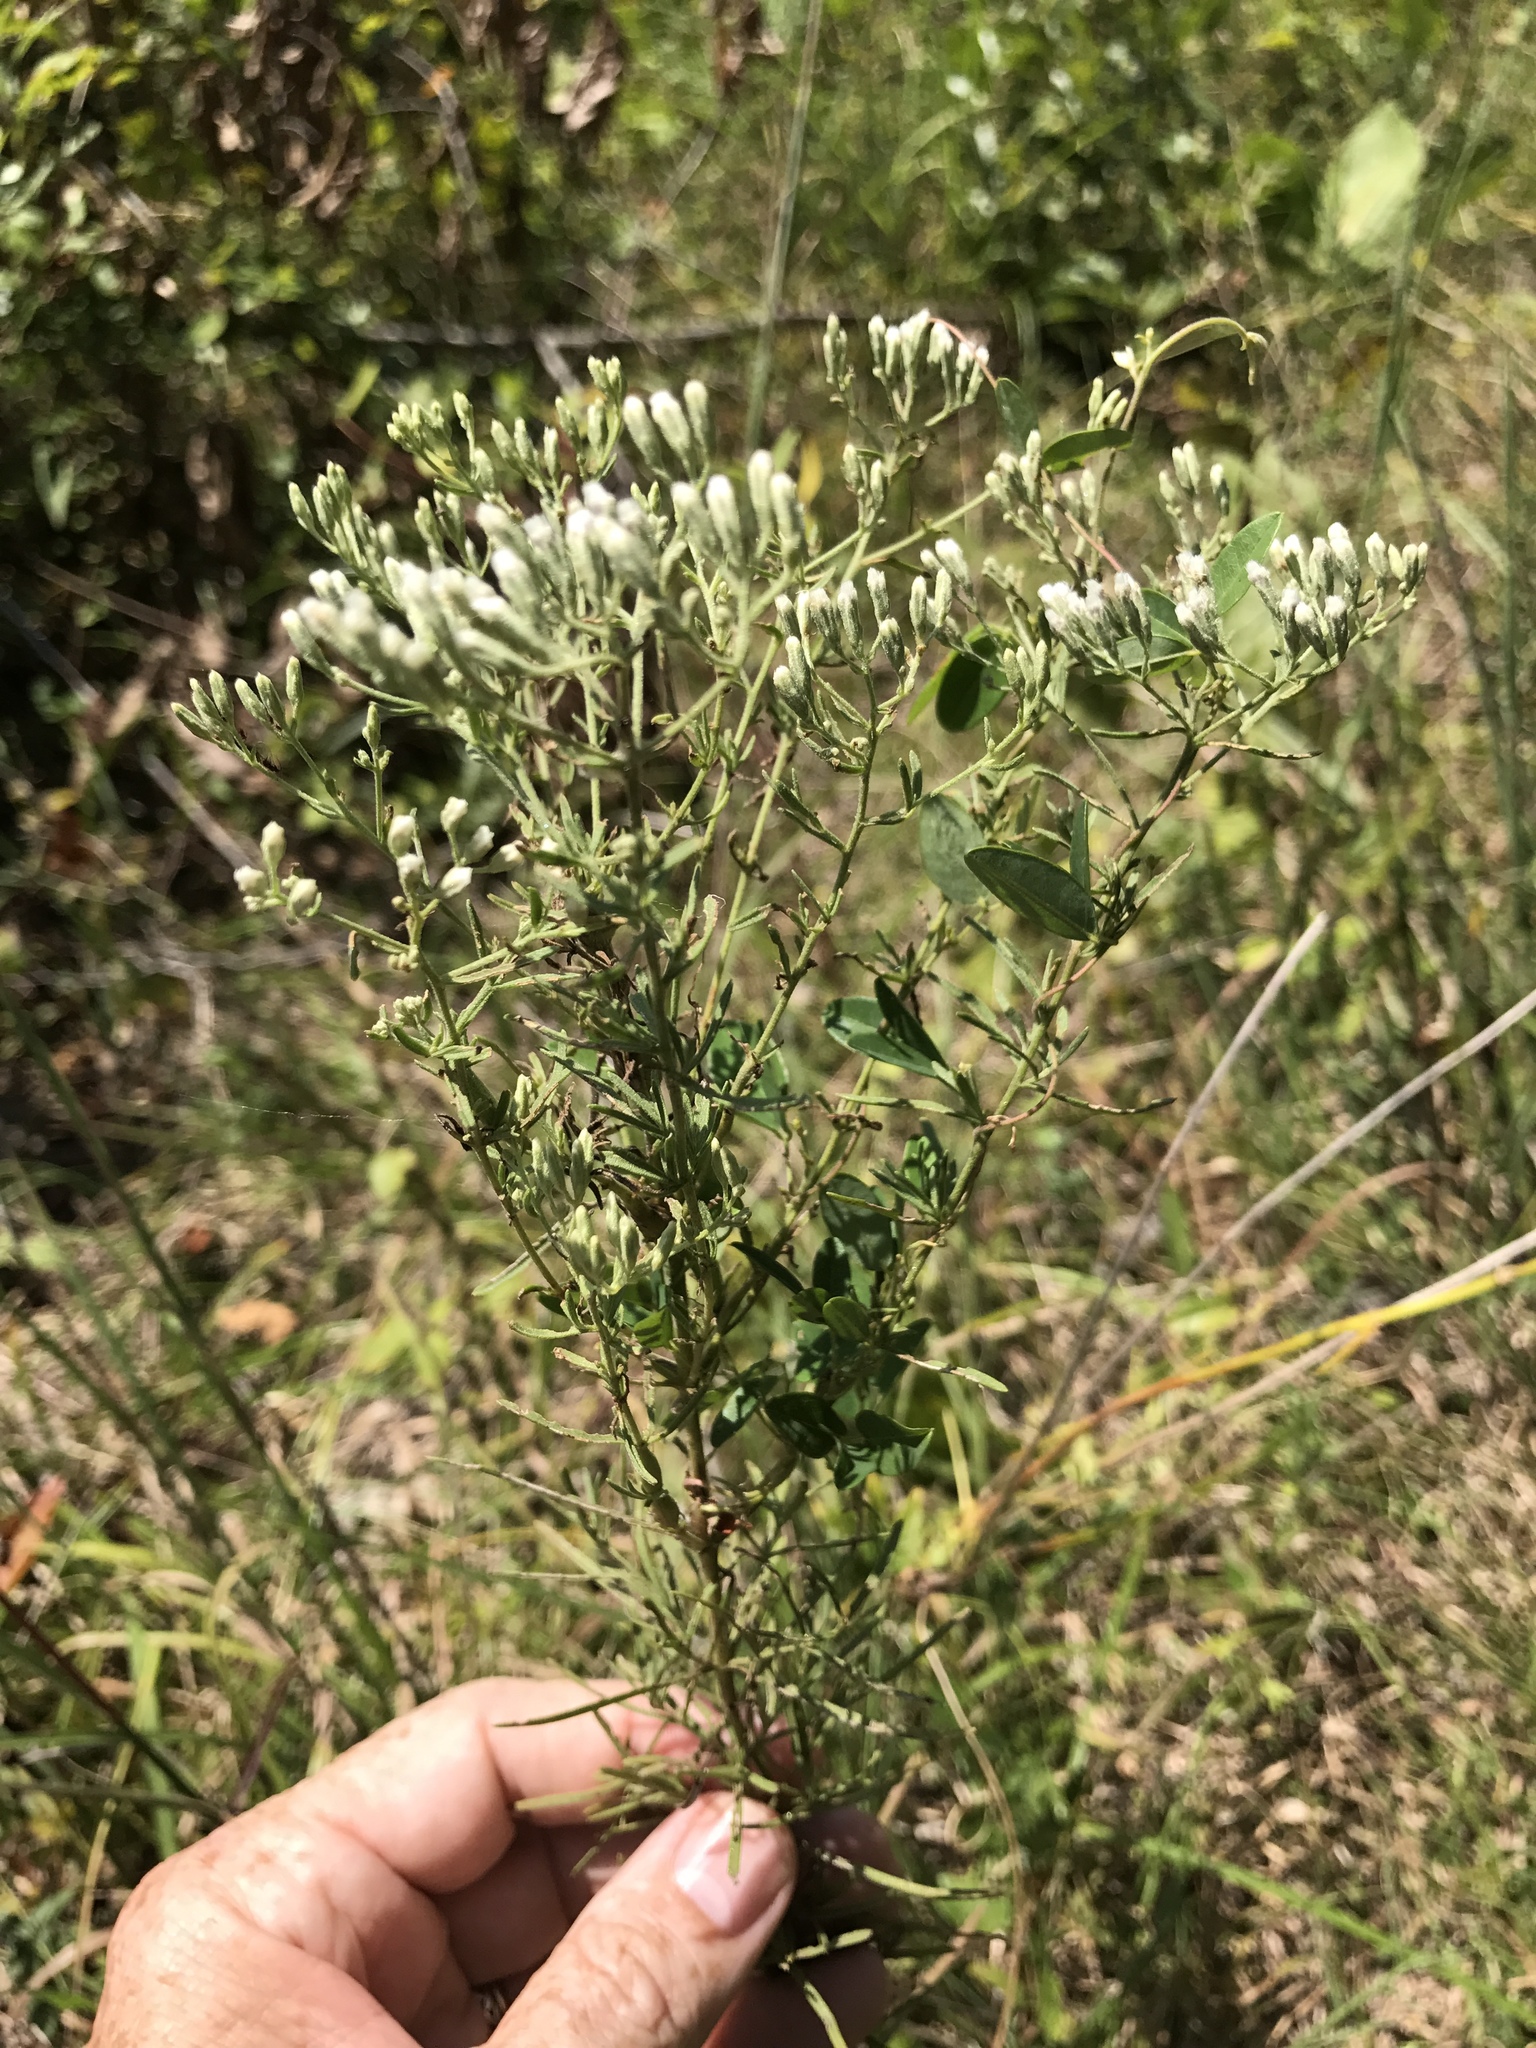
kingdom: Plantae
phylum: Tracheophyta
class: Magnoliopsida
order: Asterales
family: Asteraceae
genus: Eupatorium
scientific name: Eupatorium hyssopifolium
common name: Hyssop-leaf thoroughwort
